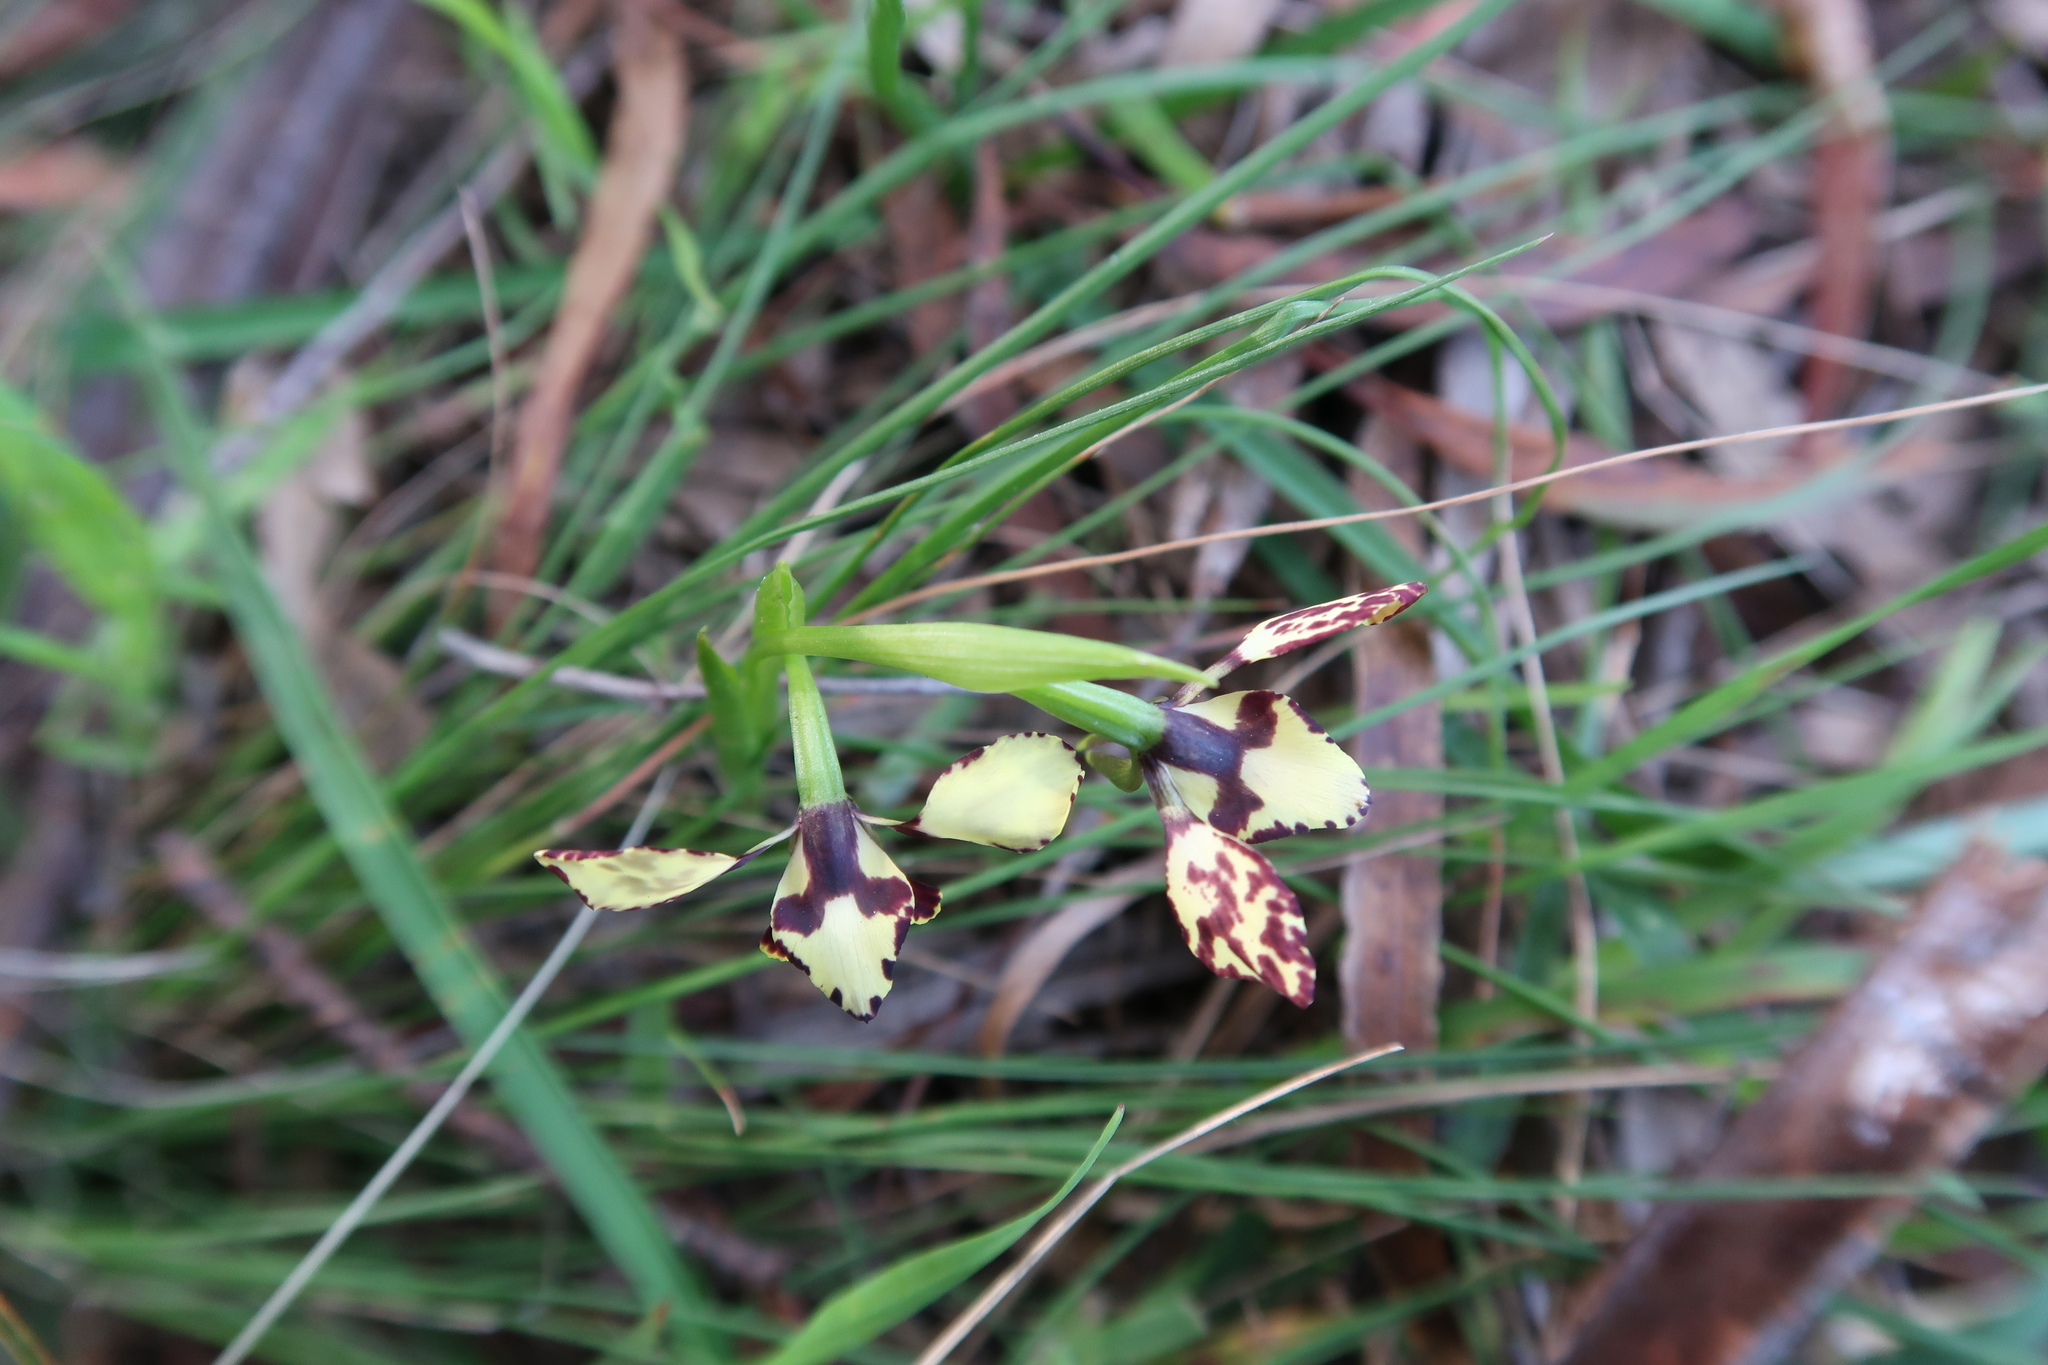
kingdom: Plantae
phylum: Tracheophyta
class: Liliopsida
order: Asparagales
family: Orchidaceae
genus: Diuris
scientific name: Diuris pardina
